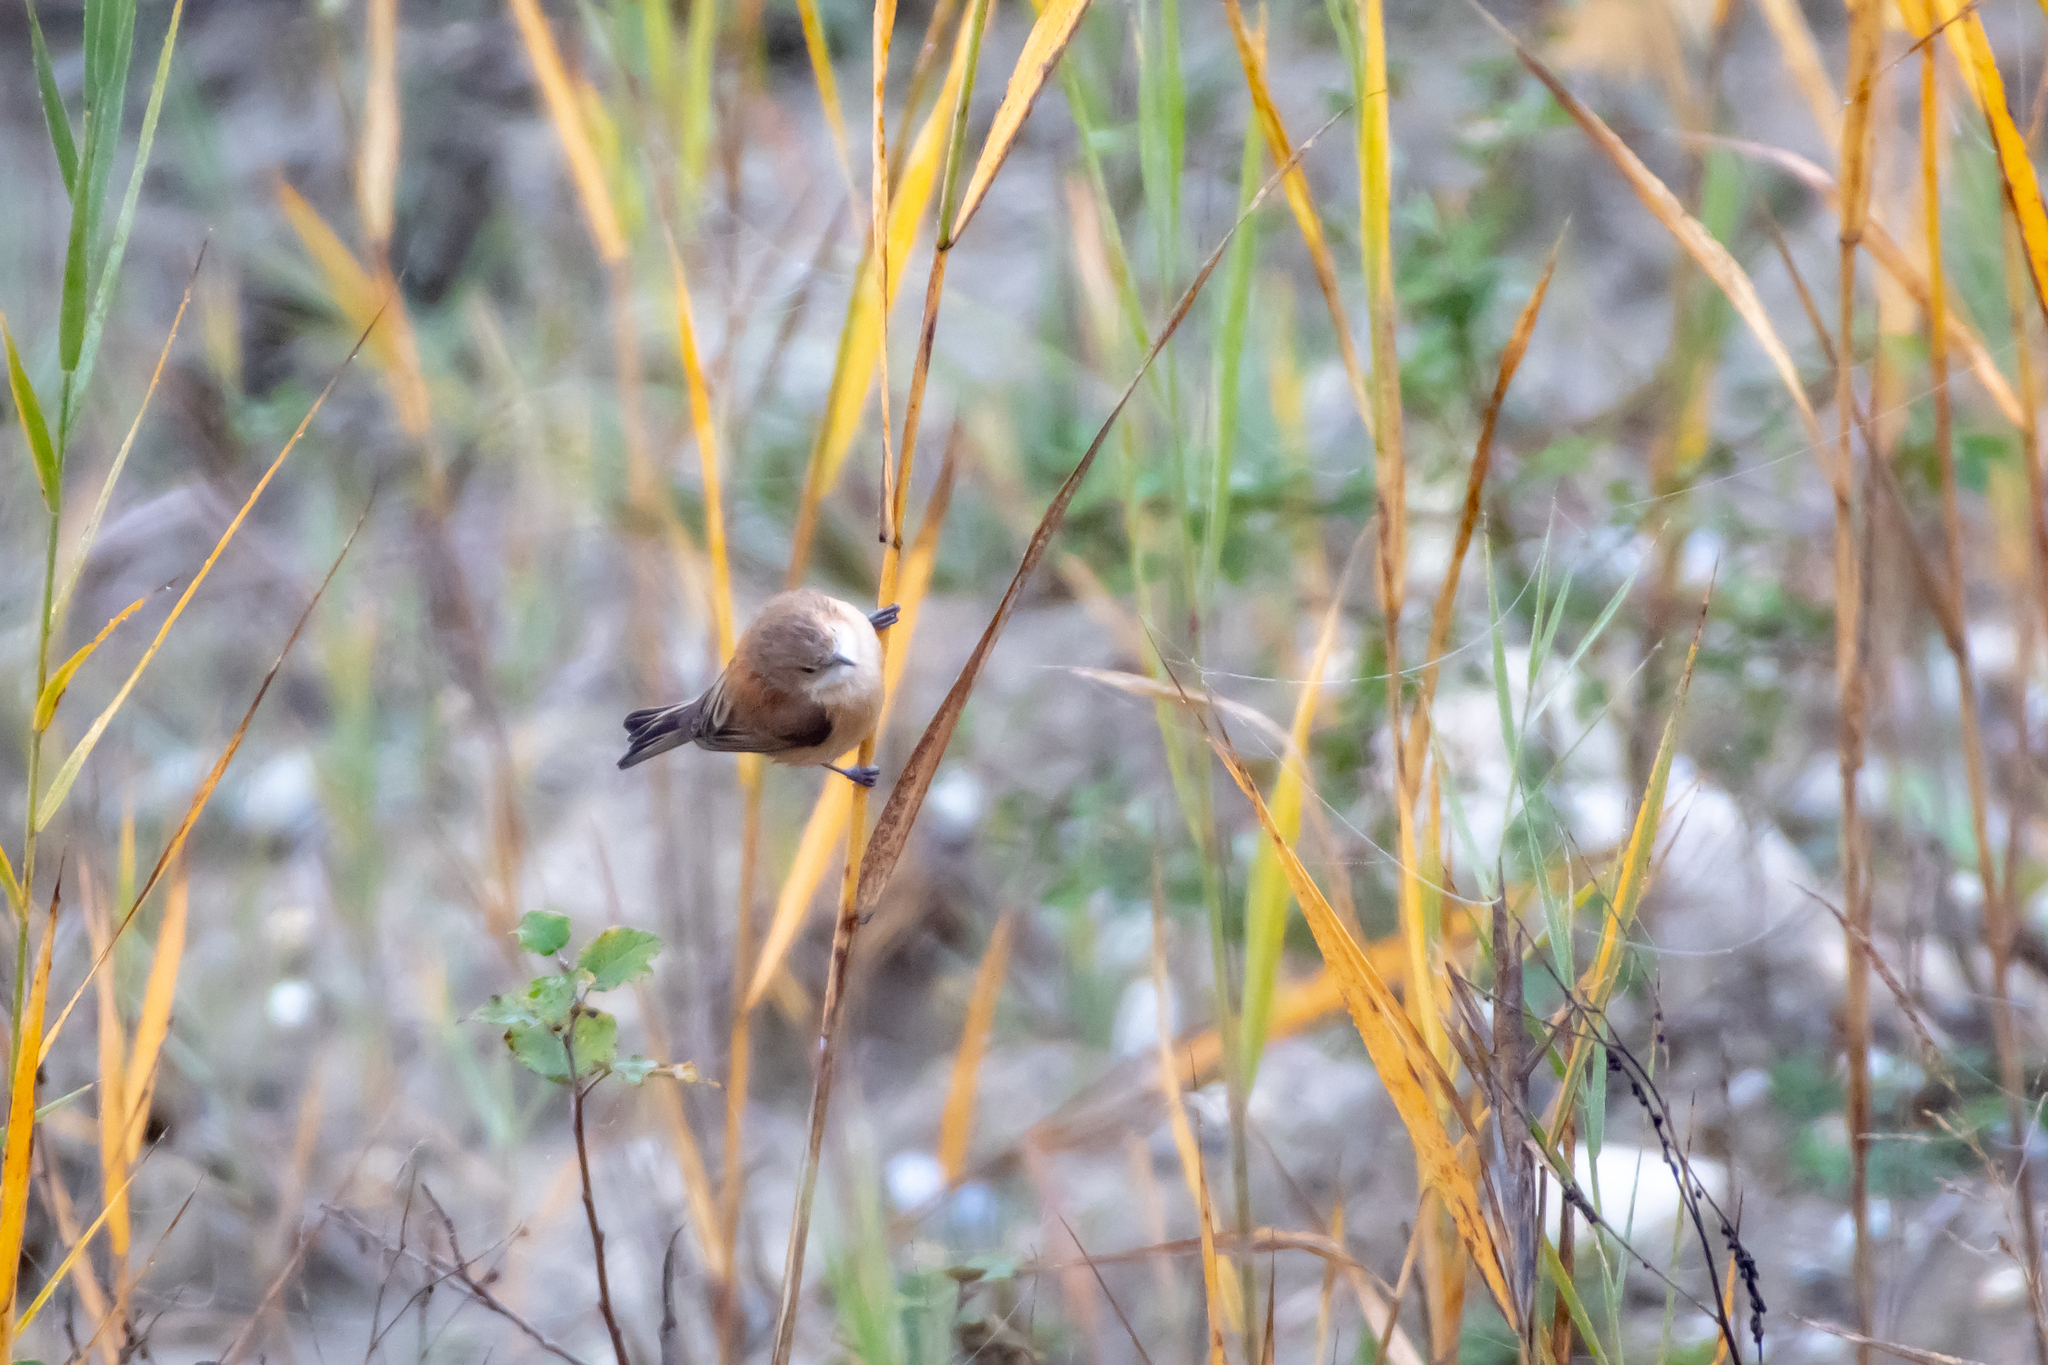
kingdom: Animalia
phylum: Chordata
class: Aves
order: Passeriformes
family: Remizidae
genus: Remiz
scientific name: Remiz pendulinus
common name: Eurasian penduline tit
